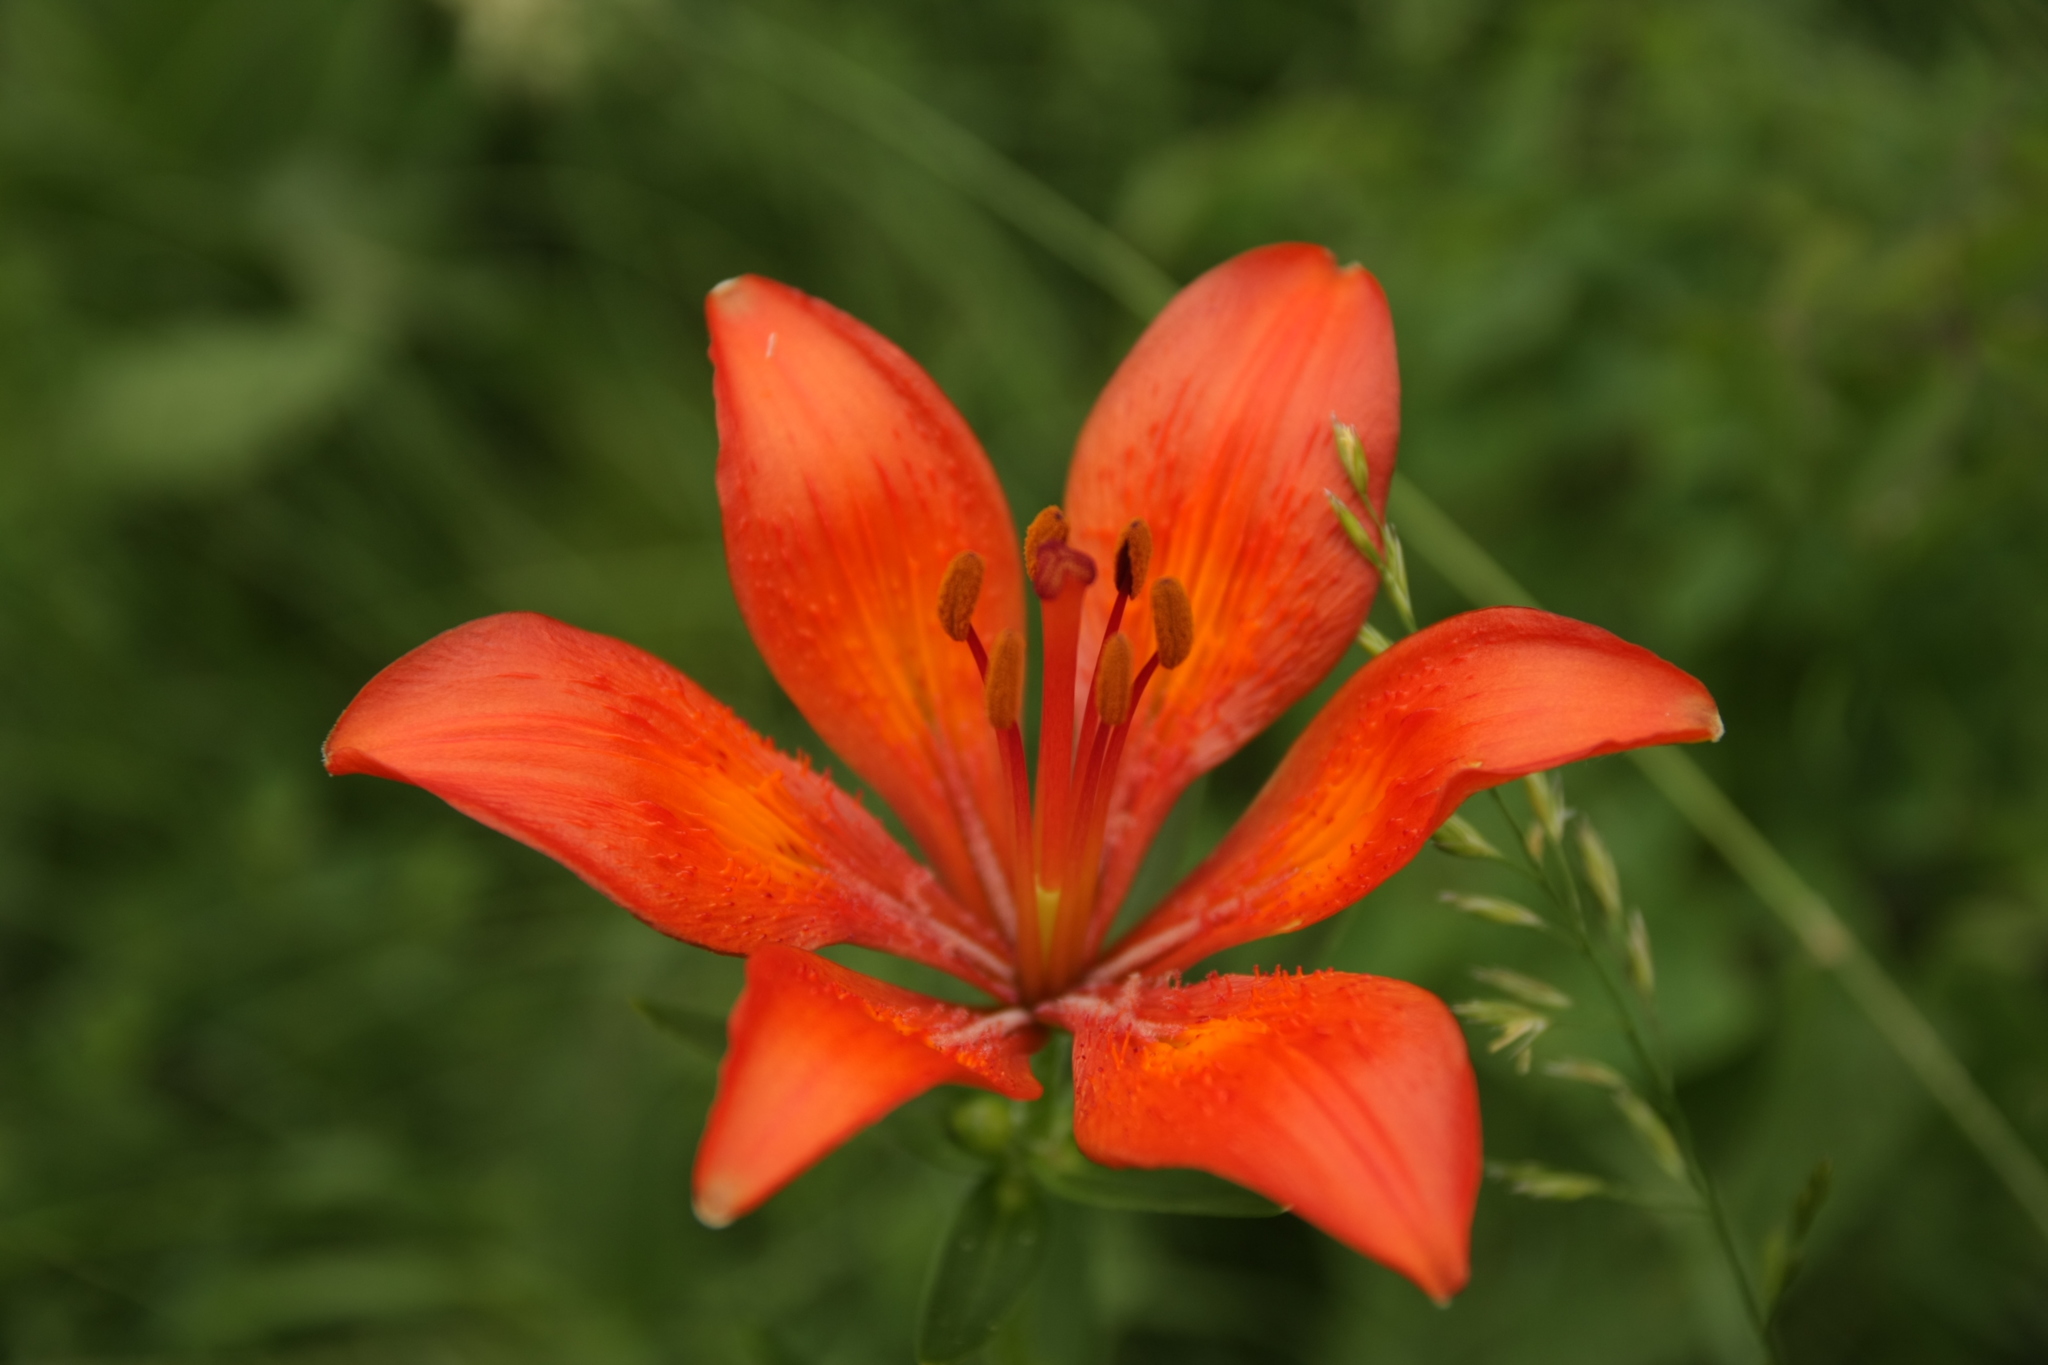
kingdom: Plantae
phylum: Tracheophyta
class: Liliopsida
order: Liliales
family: Liliaceae
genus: Lilium
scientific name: Lilium bulbiferum
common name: Orange lily
